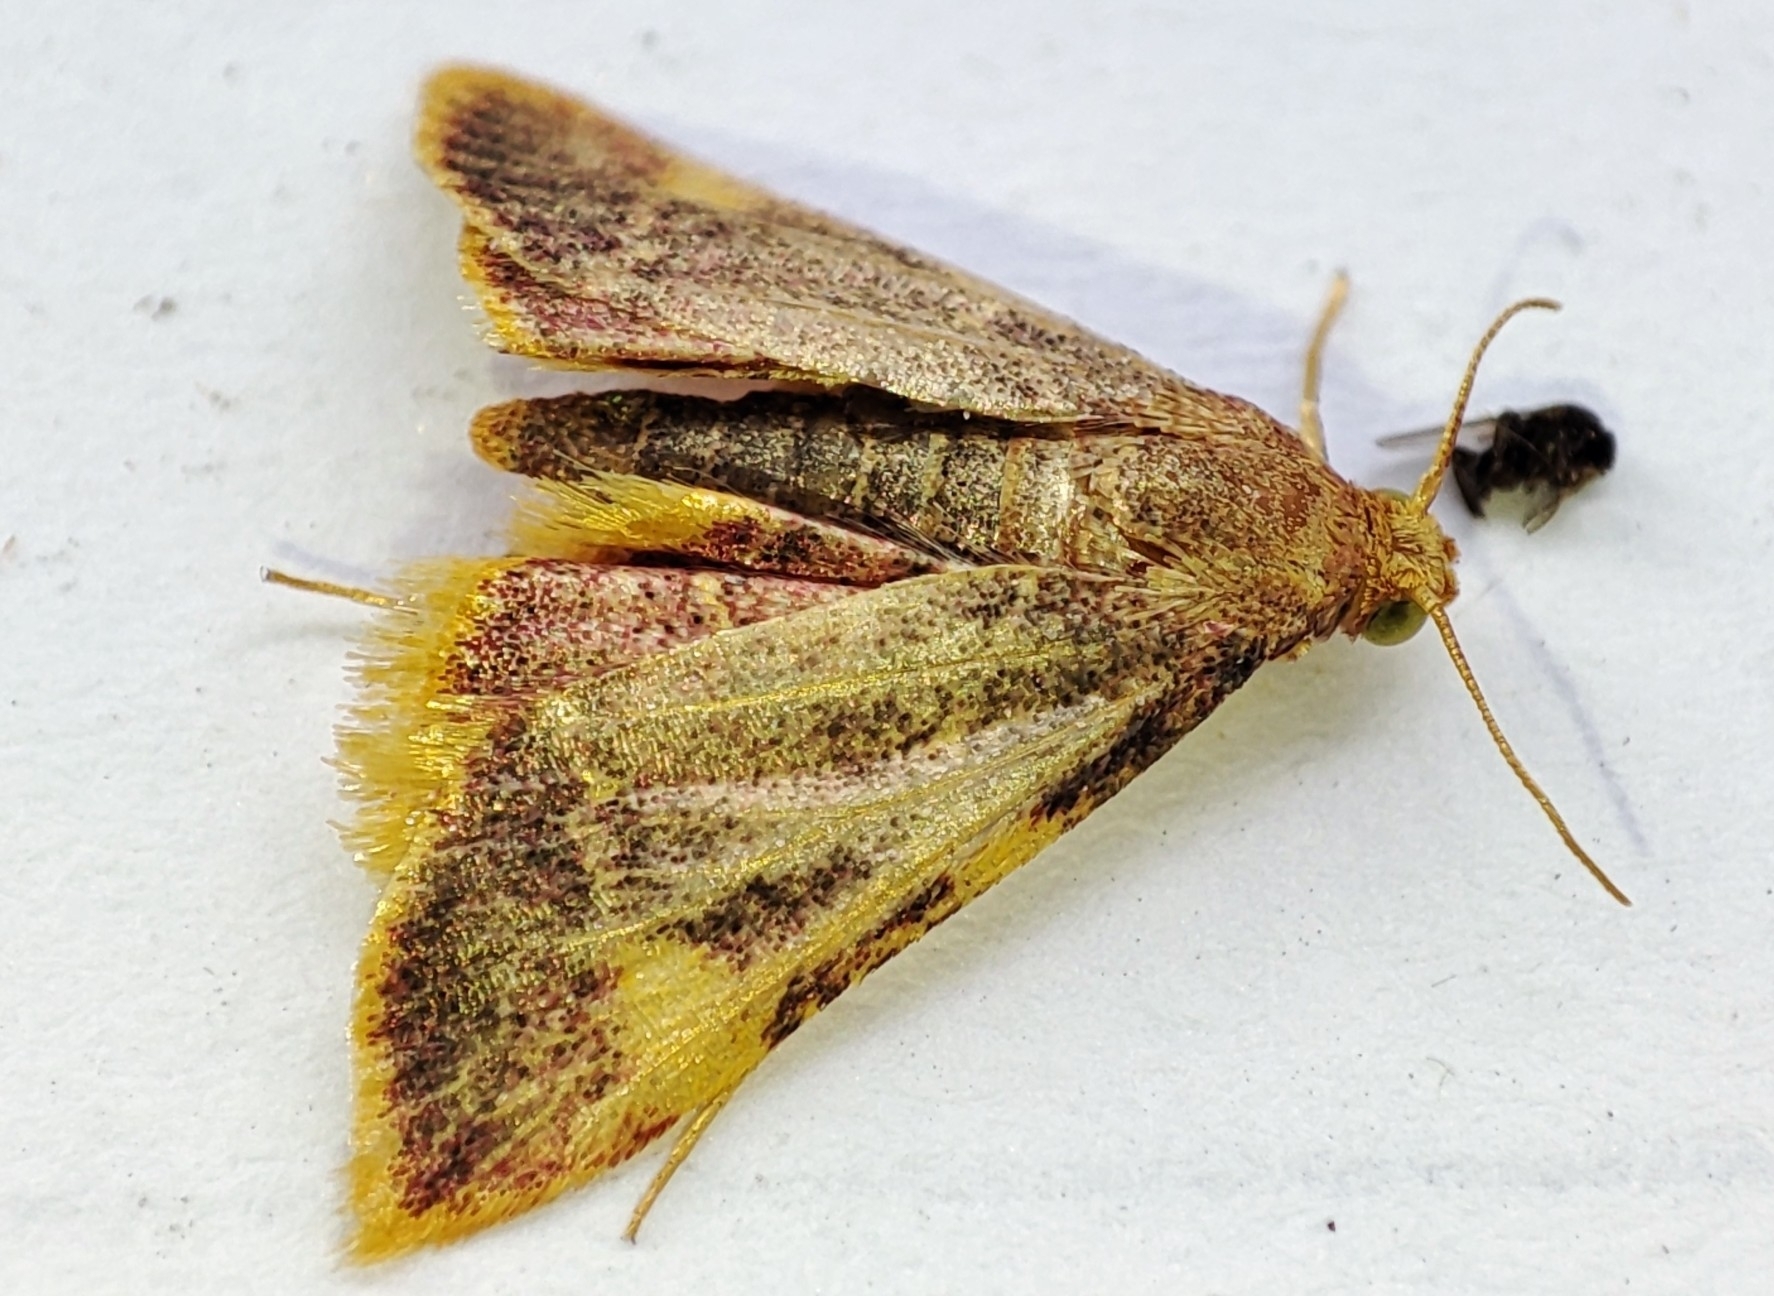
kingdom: Animalia
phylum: Arthropoda
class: Insecta
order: Lepidoptera
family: Pyralidae
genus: Hypsopygia
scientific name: Hypsopygia costalis
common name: Gold triangle
